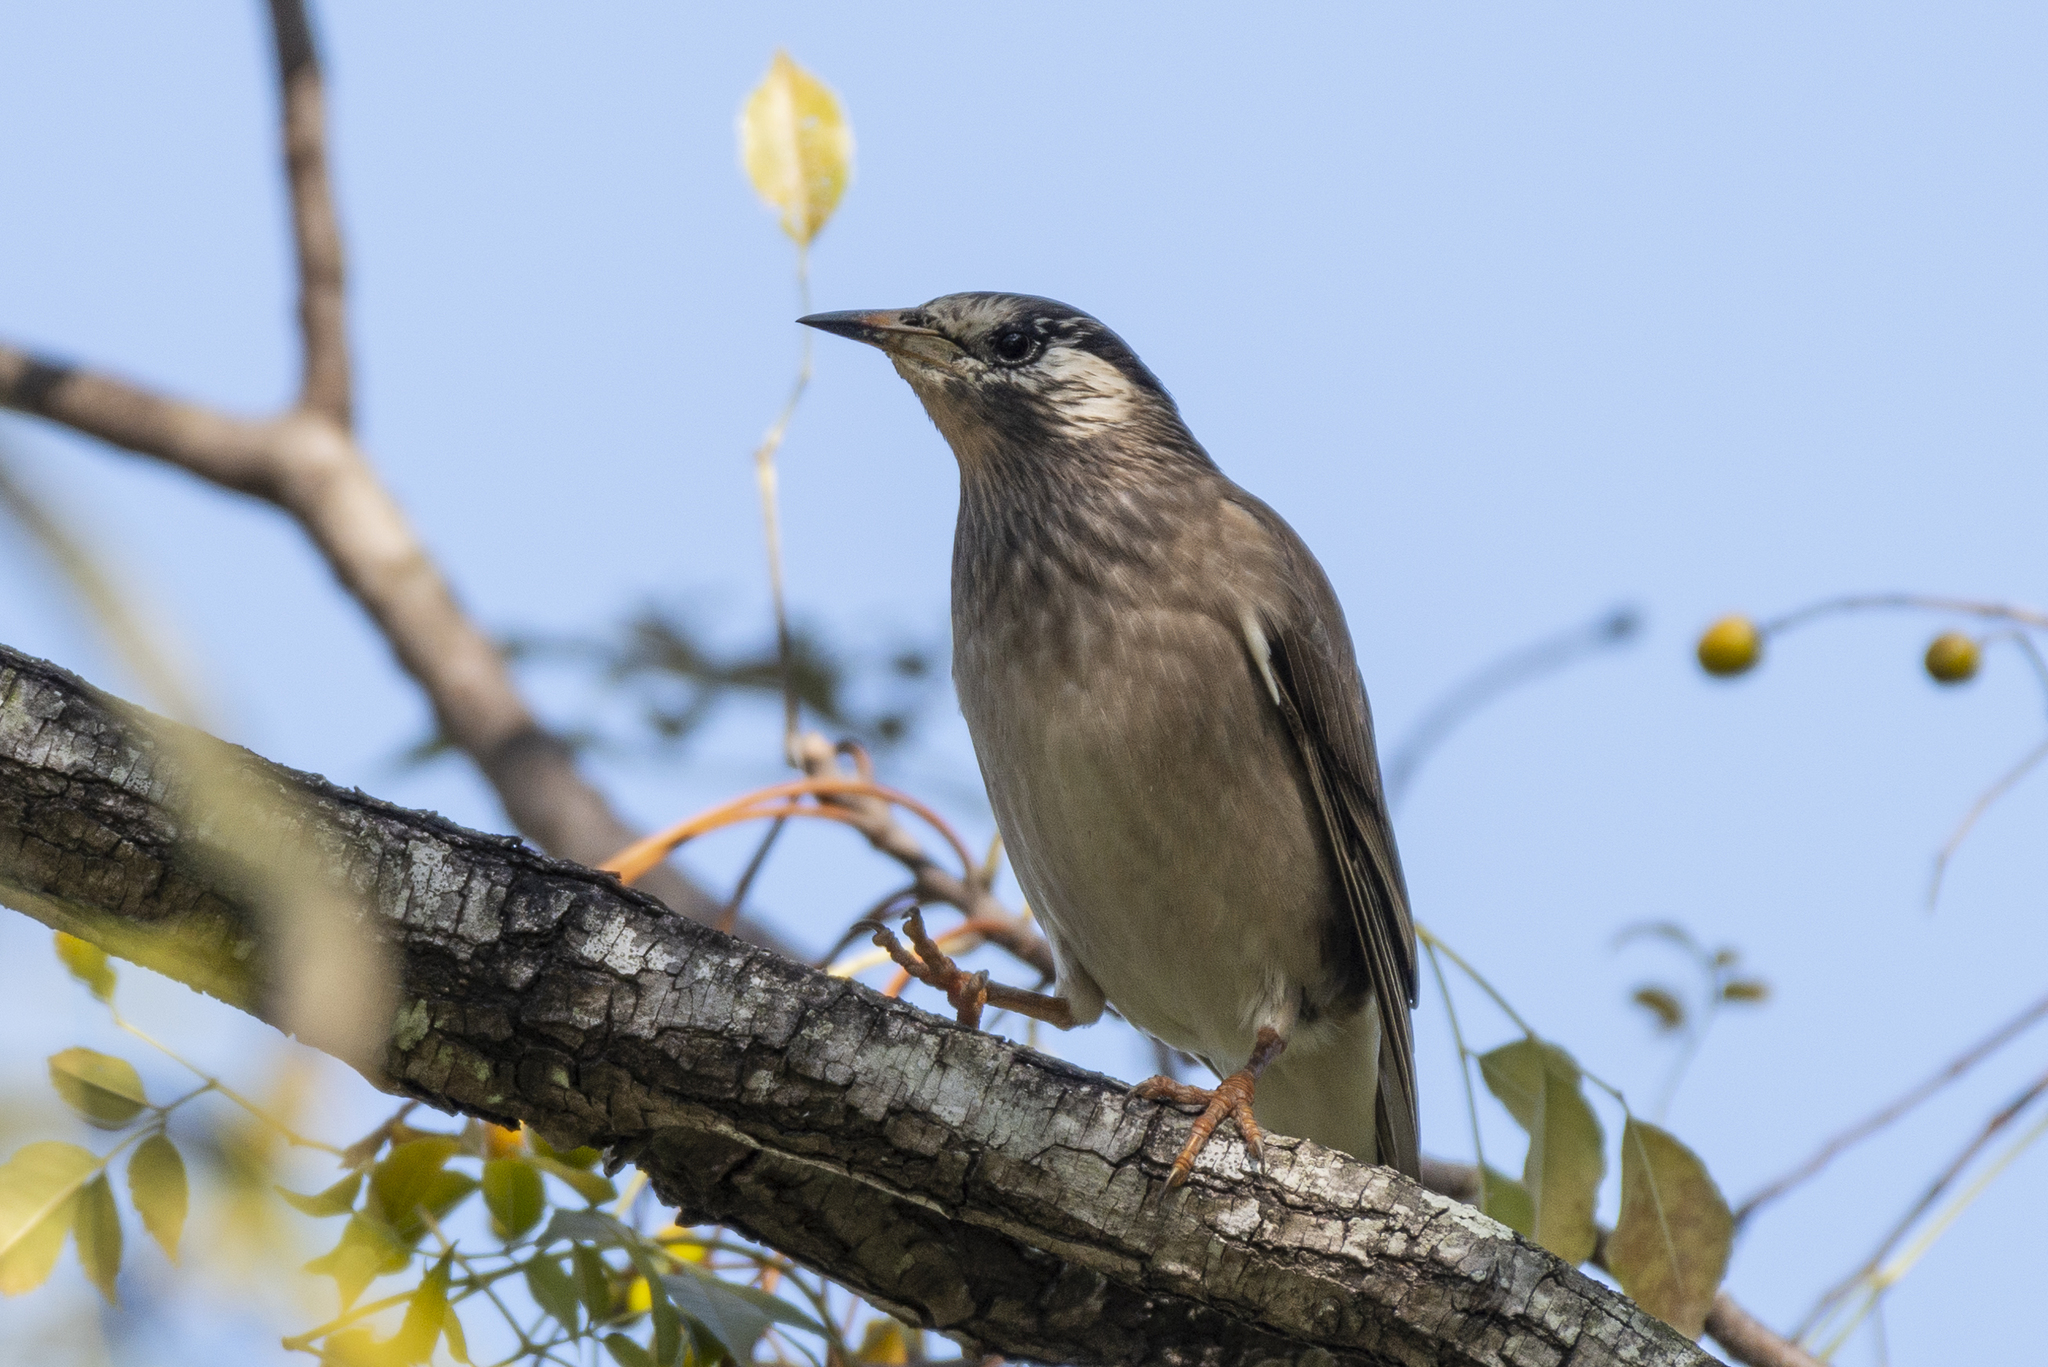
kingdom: Animalia
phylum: Chordata
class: Aves
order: Passeriformes
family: Sturnidae
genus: Spodiopsar
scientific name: Spodiopsar cineraceus
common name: White-cheeked starling
